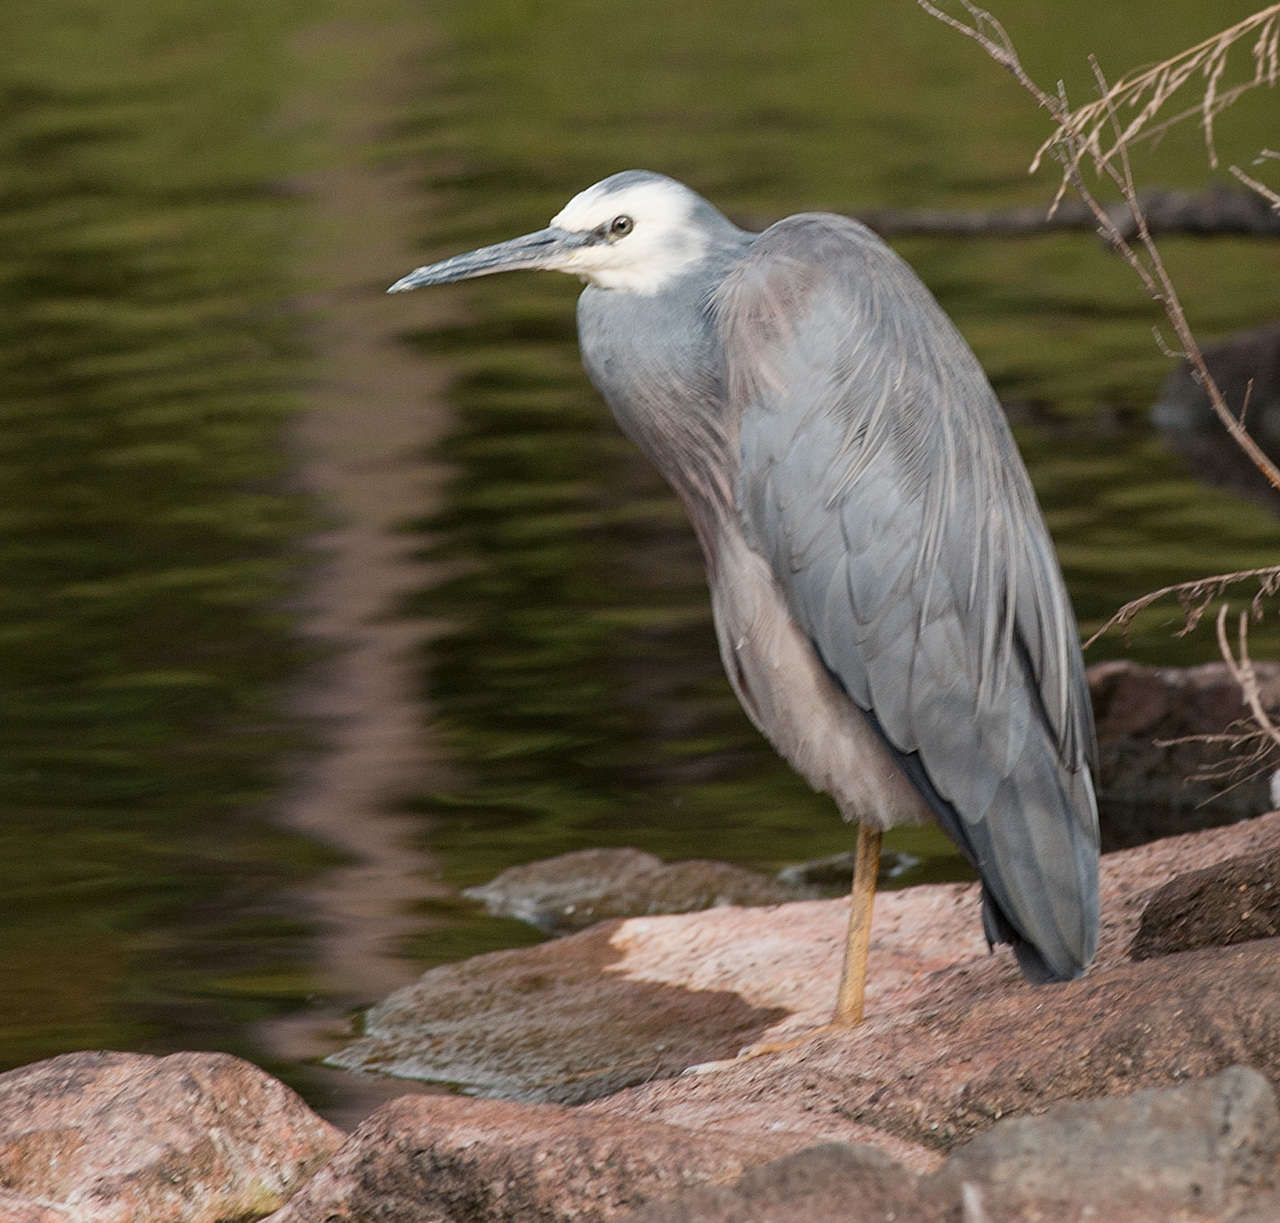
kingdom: Animalia
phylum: Chordata
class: Aves
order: Pelecaniformes
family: Ardeidae
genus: Egretta
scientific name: Egretta novaehollandiae
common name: White-faced heron
